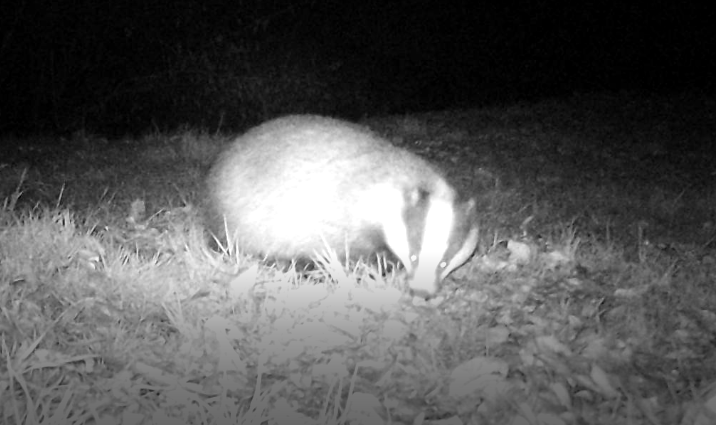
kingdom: Animalia
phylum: Chordata
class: Mammalia
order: Carnivora
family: Mustelidae
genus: Meles
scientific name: Meles meles
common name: Eurasian badger
